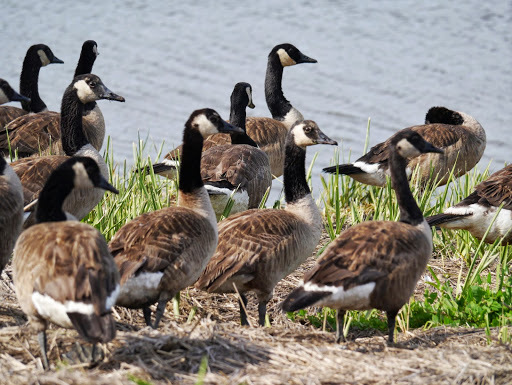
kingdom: Animalia
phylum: Chordata
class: Aves
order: Anseriformes
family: Anatidae
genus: Branta
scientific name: Branta canadensis
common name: Canada goose
